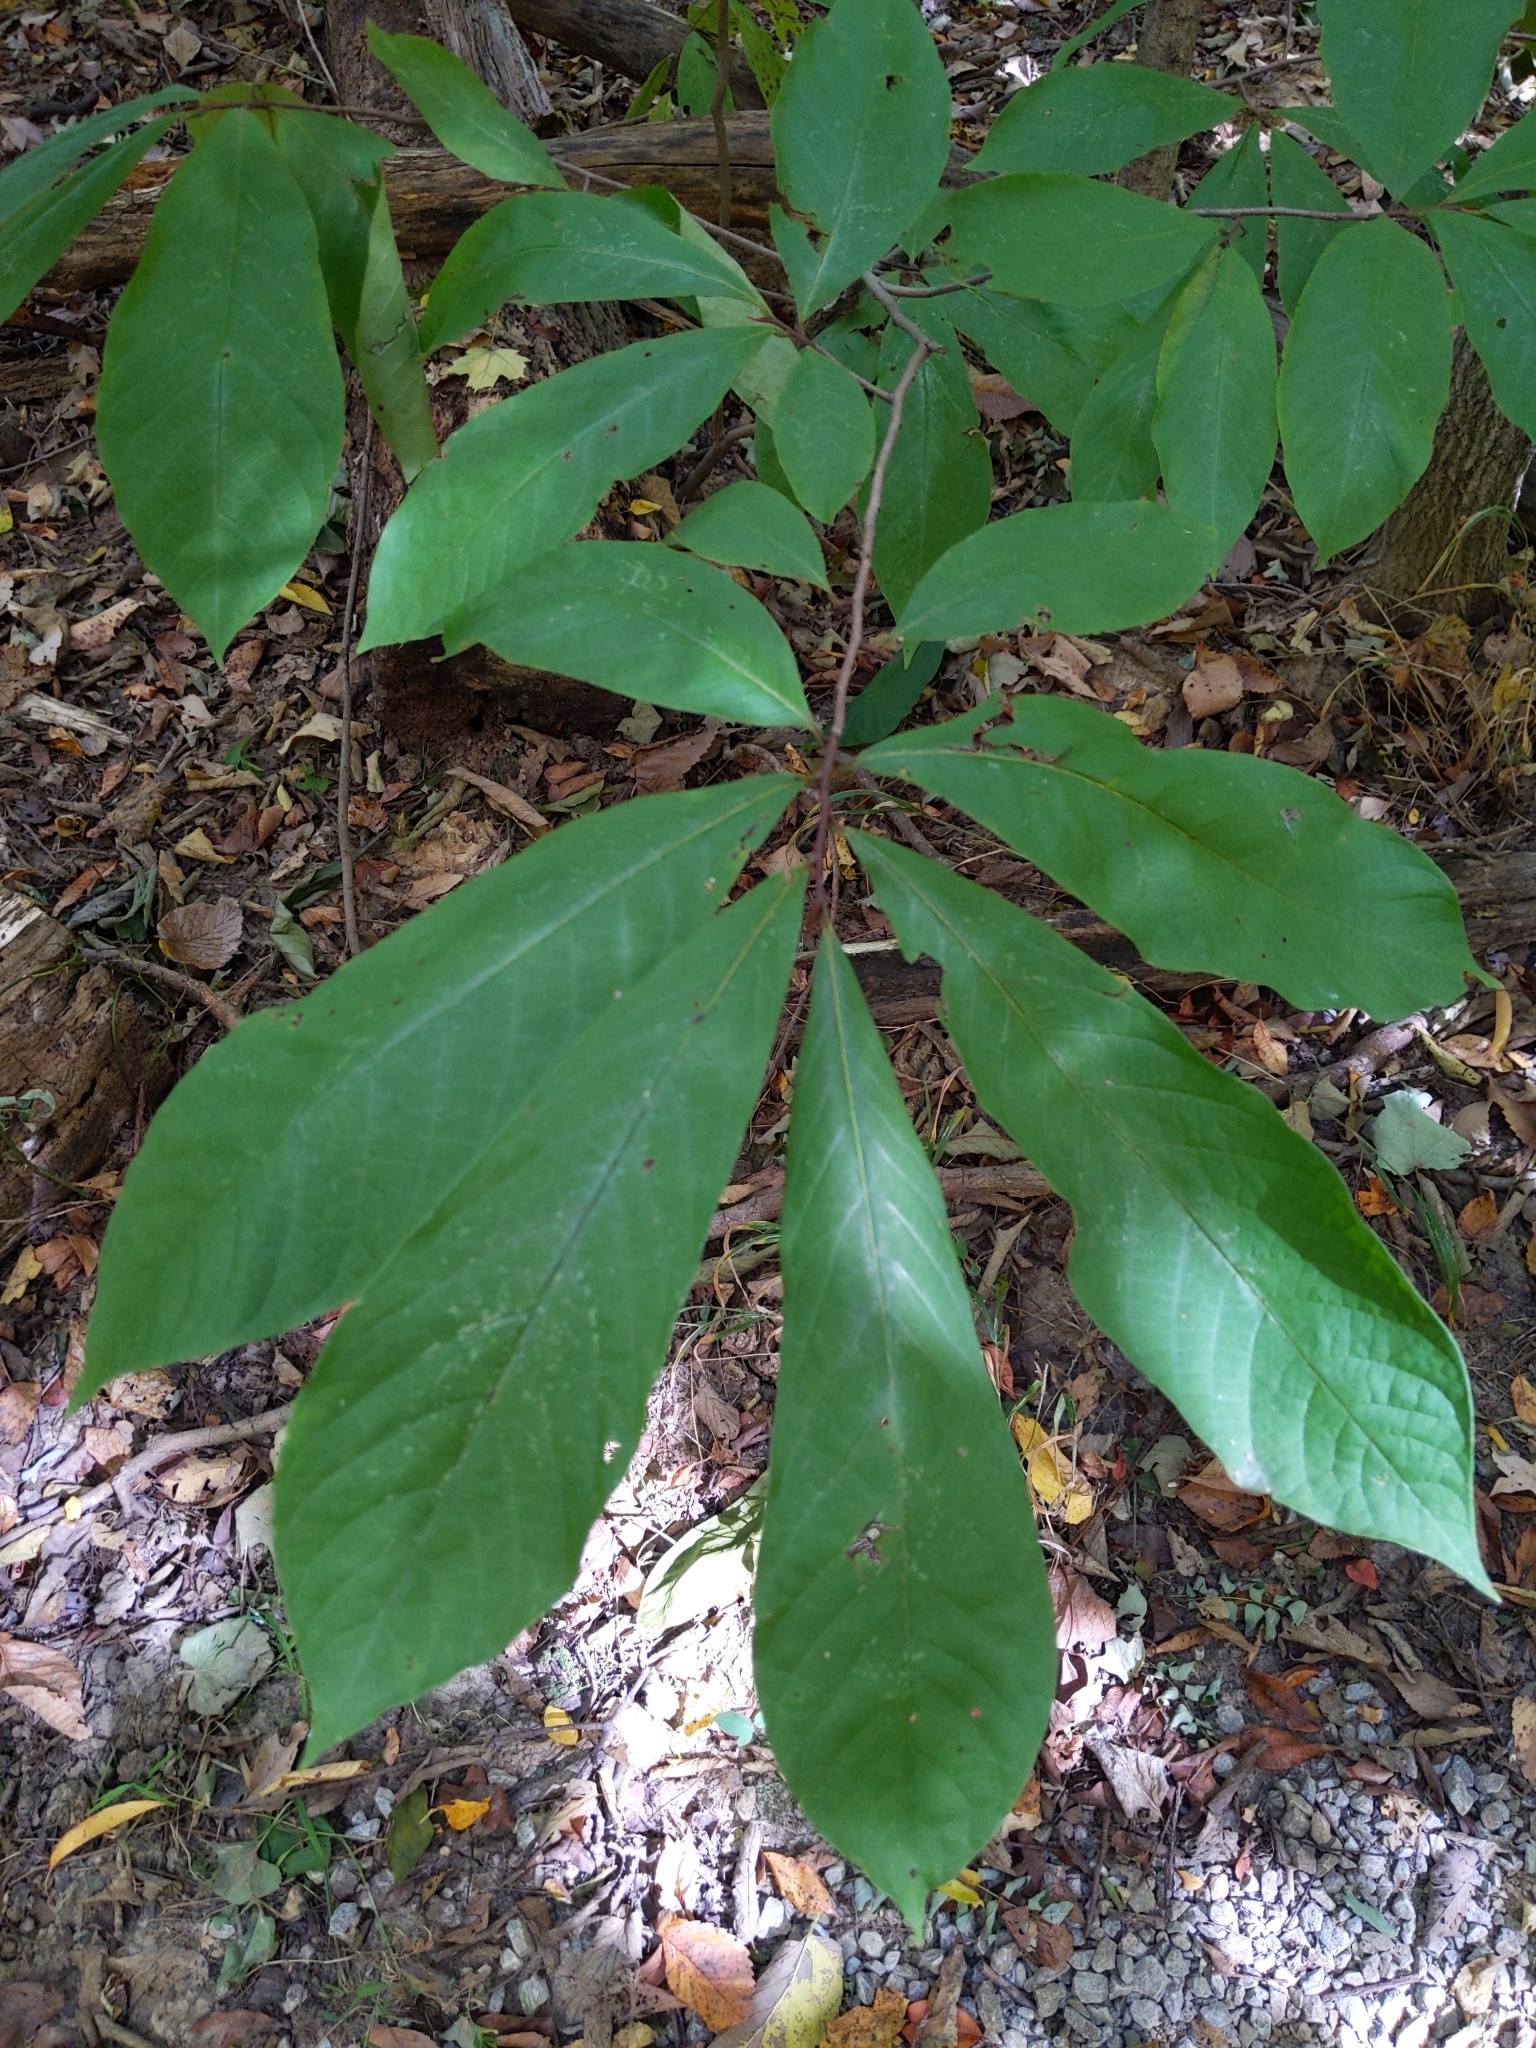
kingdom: Plantae
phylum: Tracheophyta
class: Magnoliopsida
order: Magnoliales
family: Annonaceae
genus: Asimina
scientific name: Asimina triloba
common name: Dog-banana
